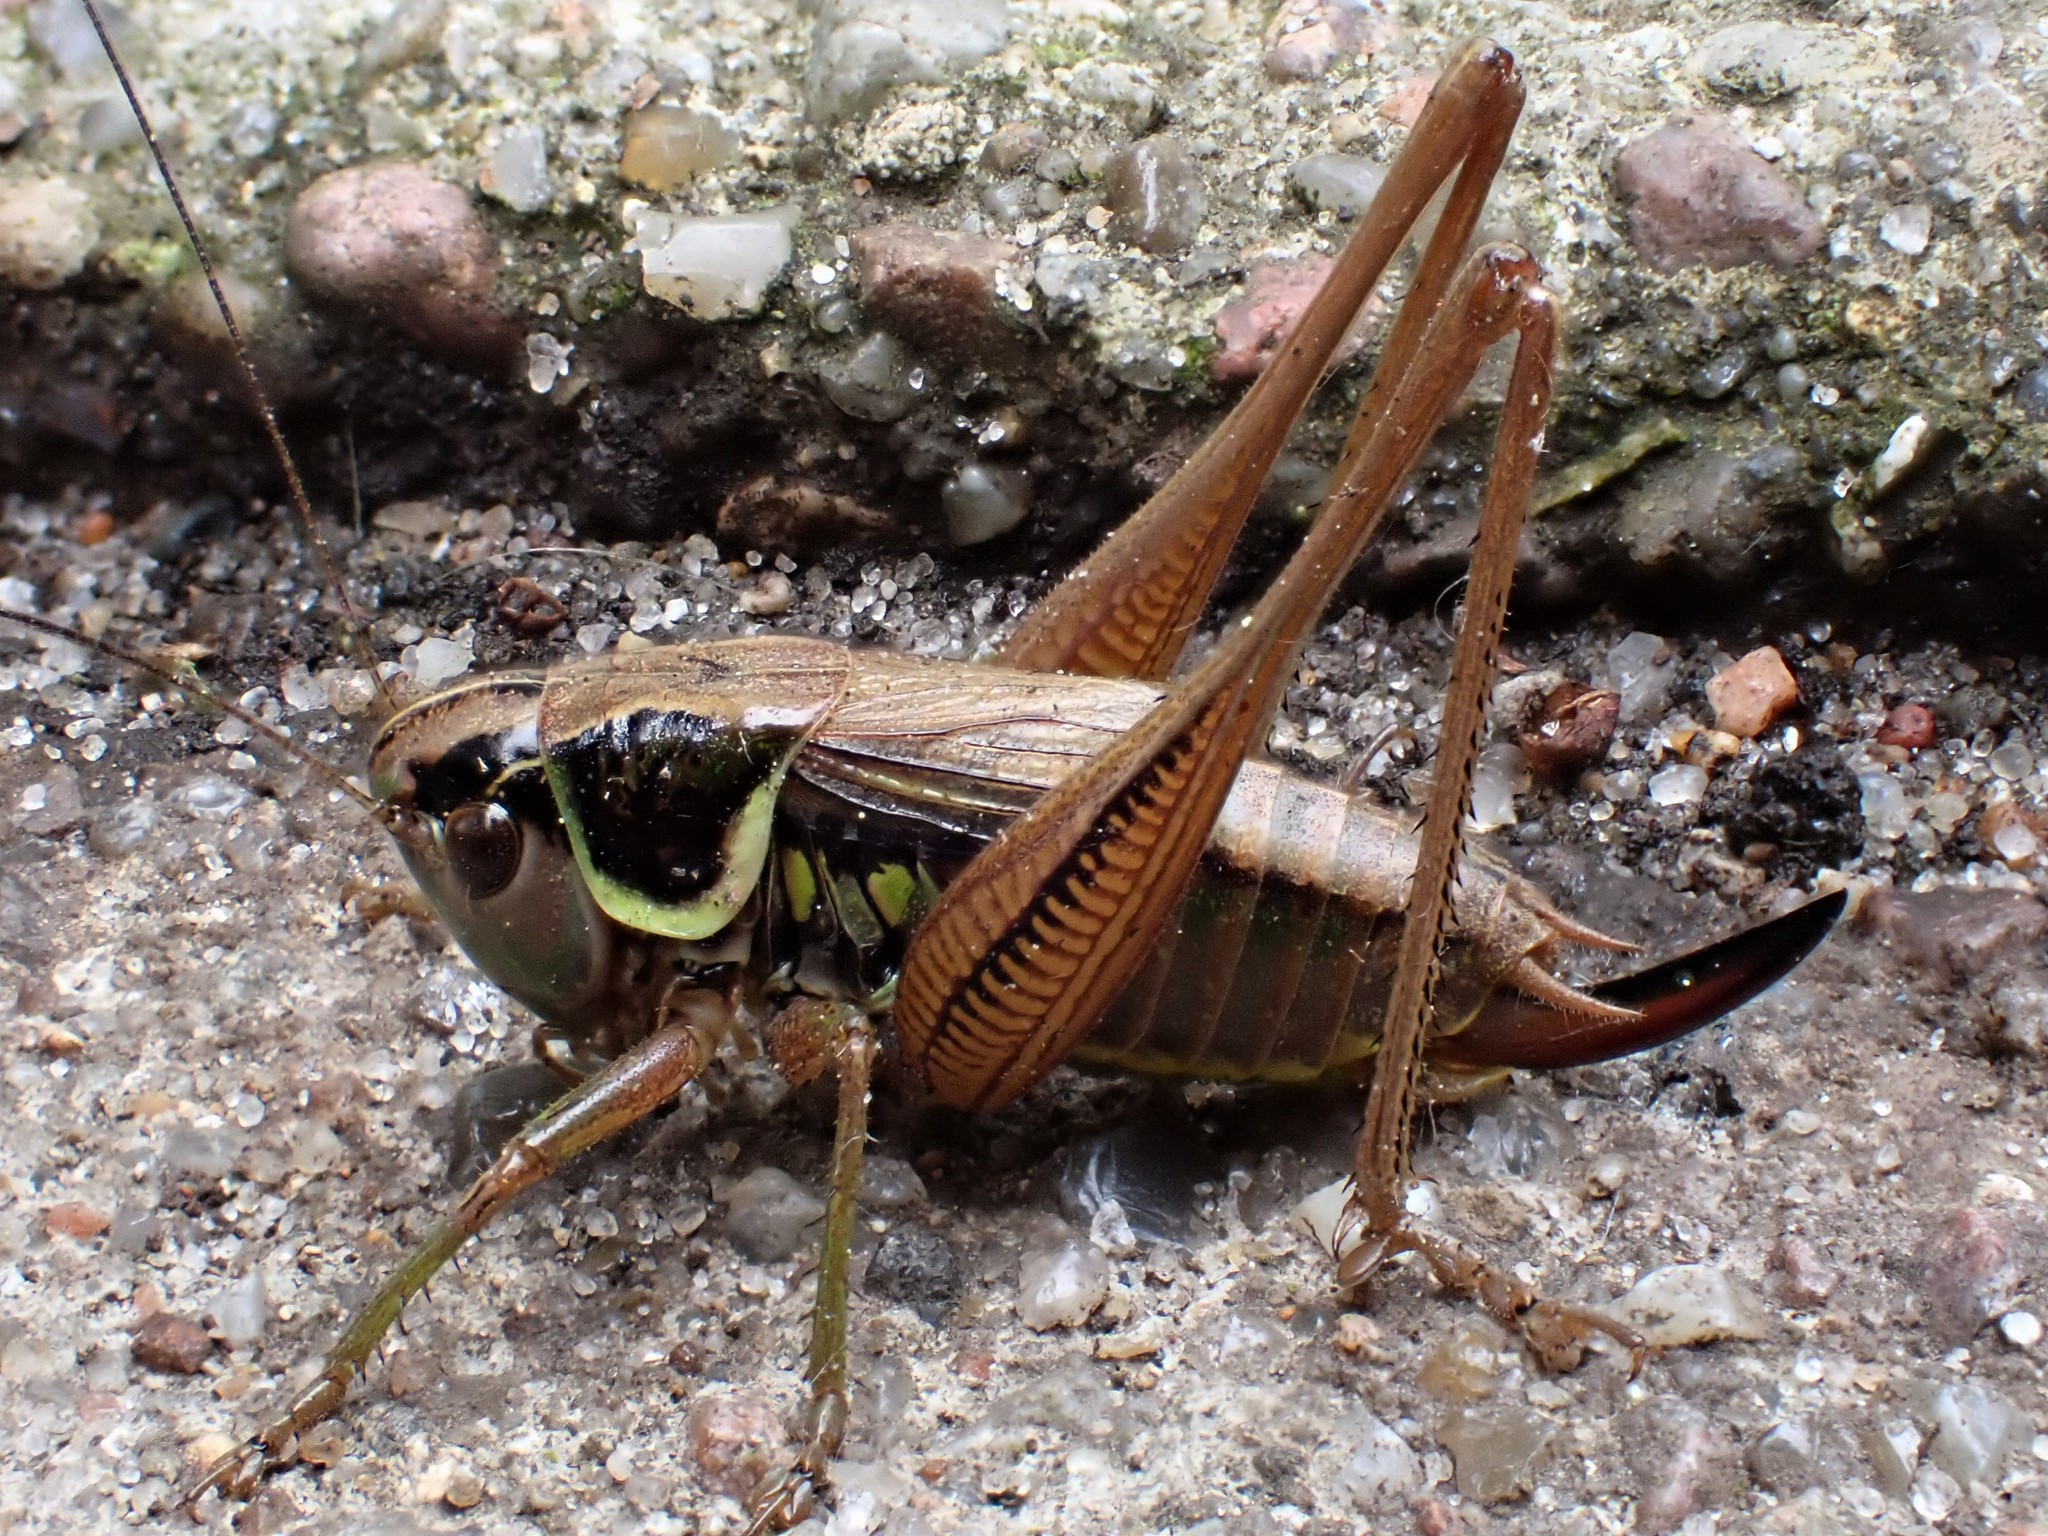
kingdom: Animalia
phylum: Arthropoda
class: Insecta
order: Orthoptera
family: Tettigoniidae
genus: Roeseliana
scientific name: Roeseliana roeselii
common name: Roesel's bush cricket
